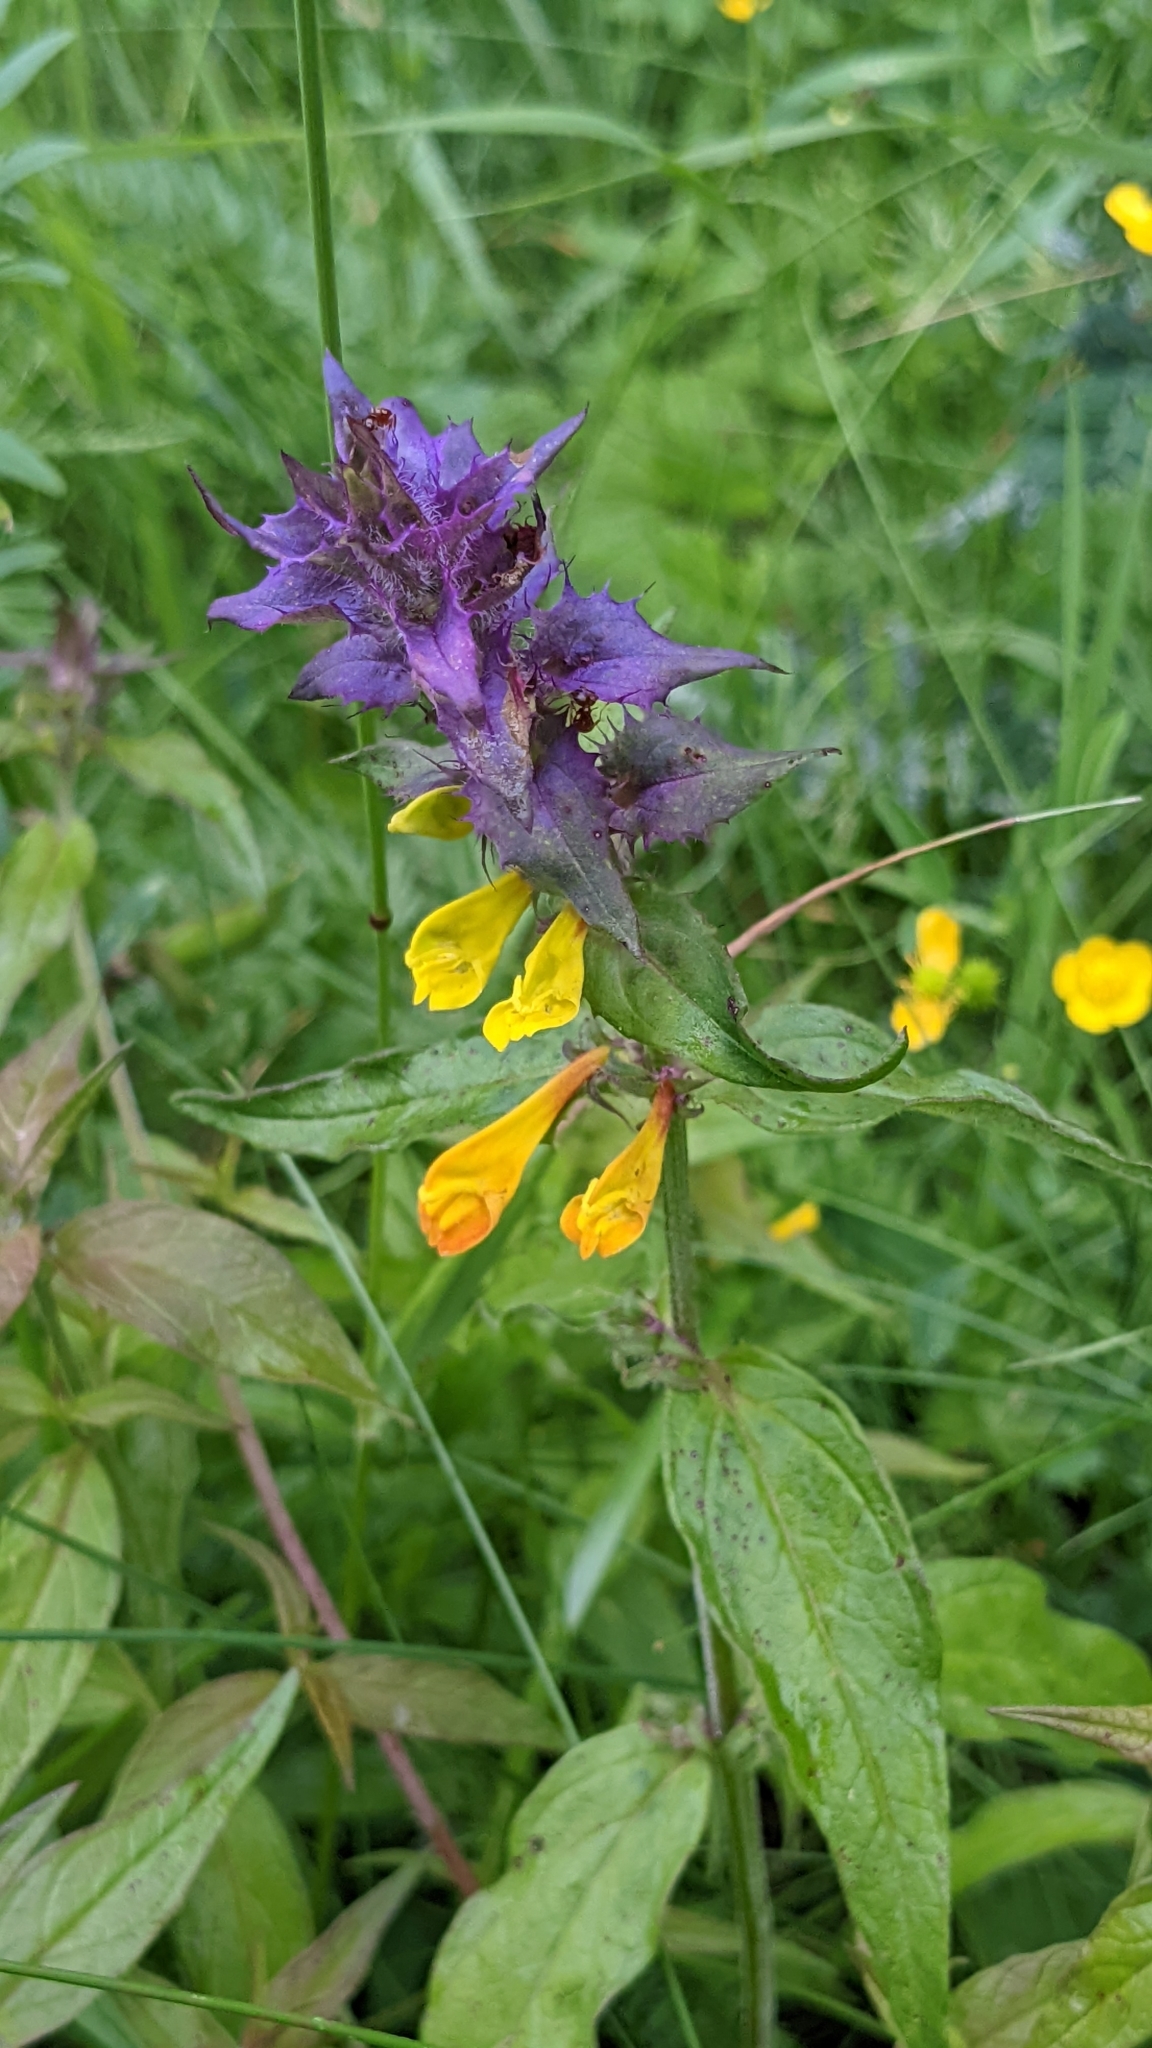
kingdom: Plantae
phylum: Tracheophyta
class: Magnoliopsida
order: Lamiales
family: Orobanchaceae
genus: Melampyrum
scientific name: Melampyrum nemorosum
